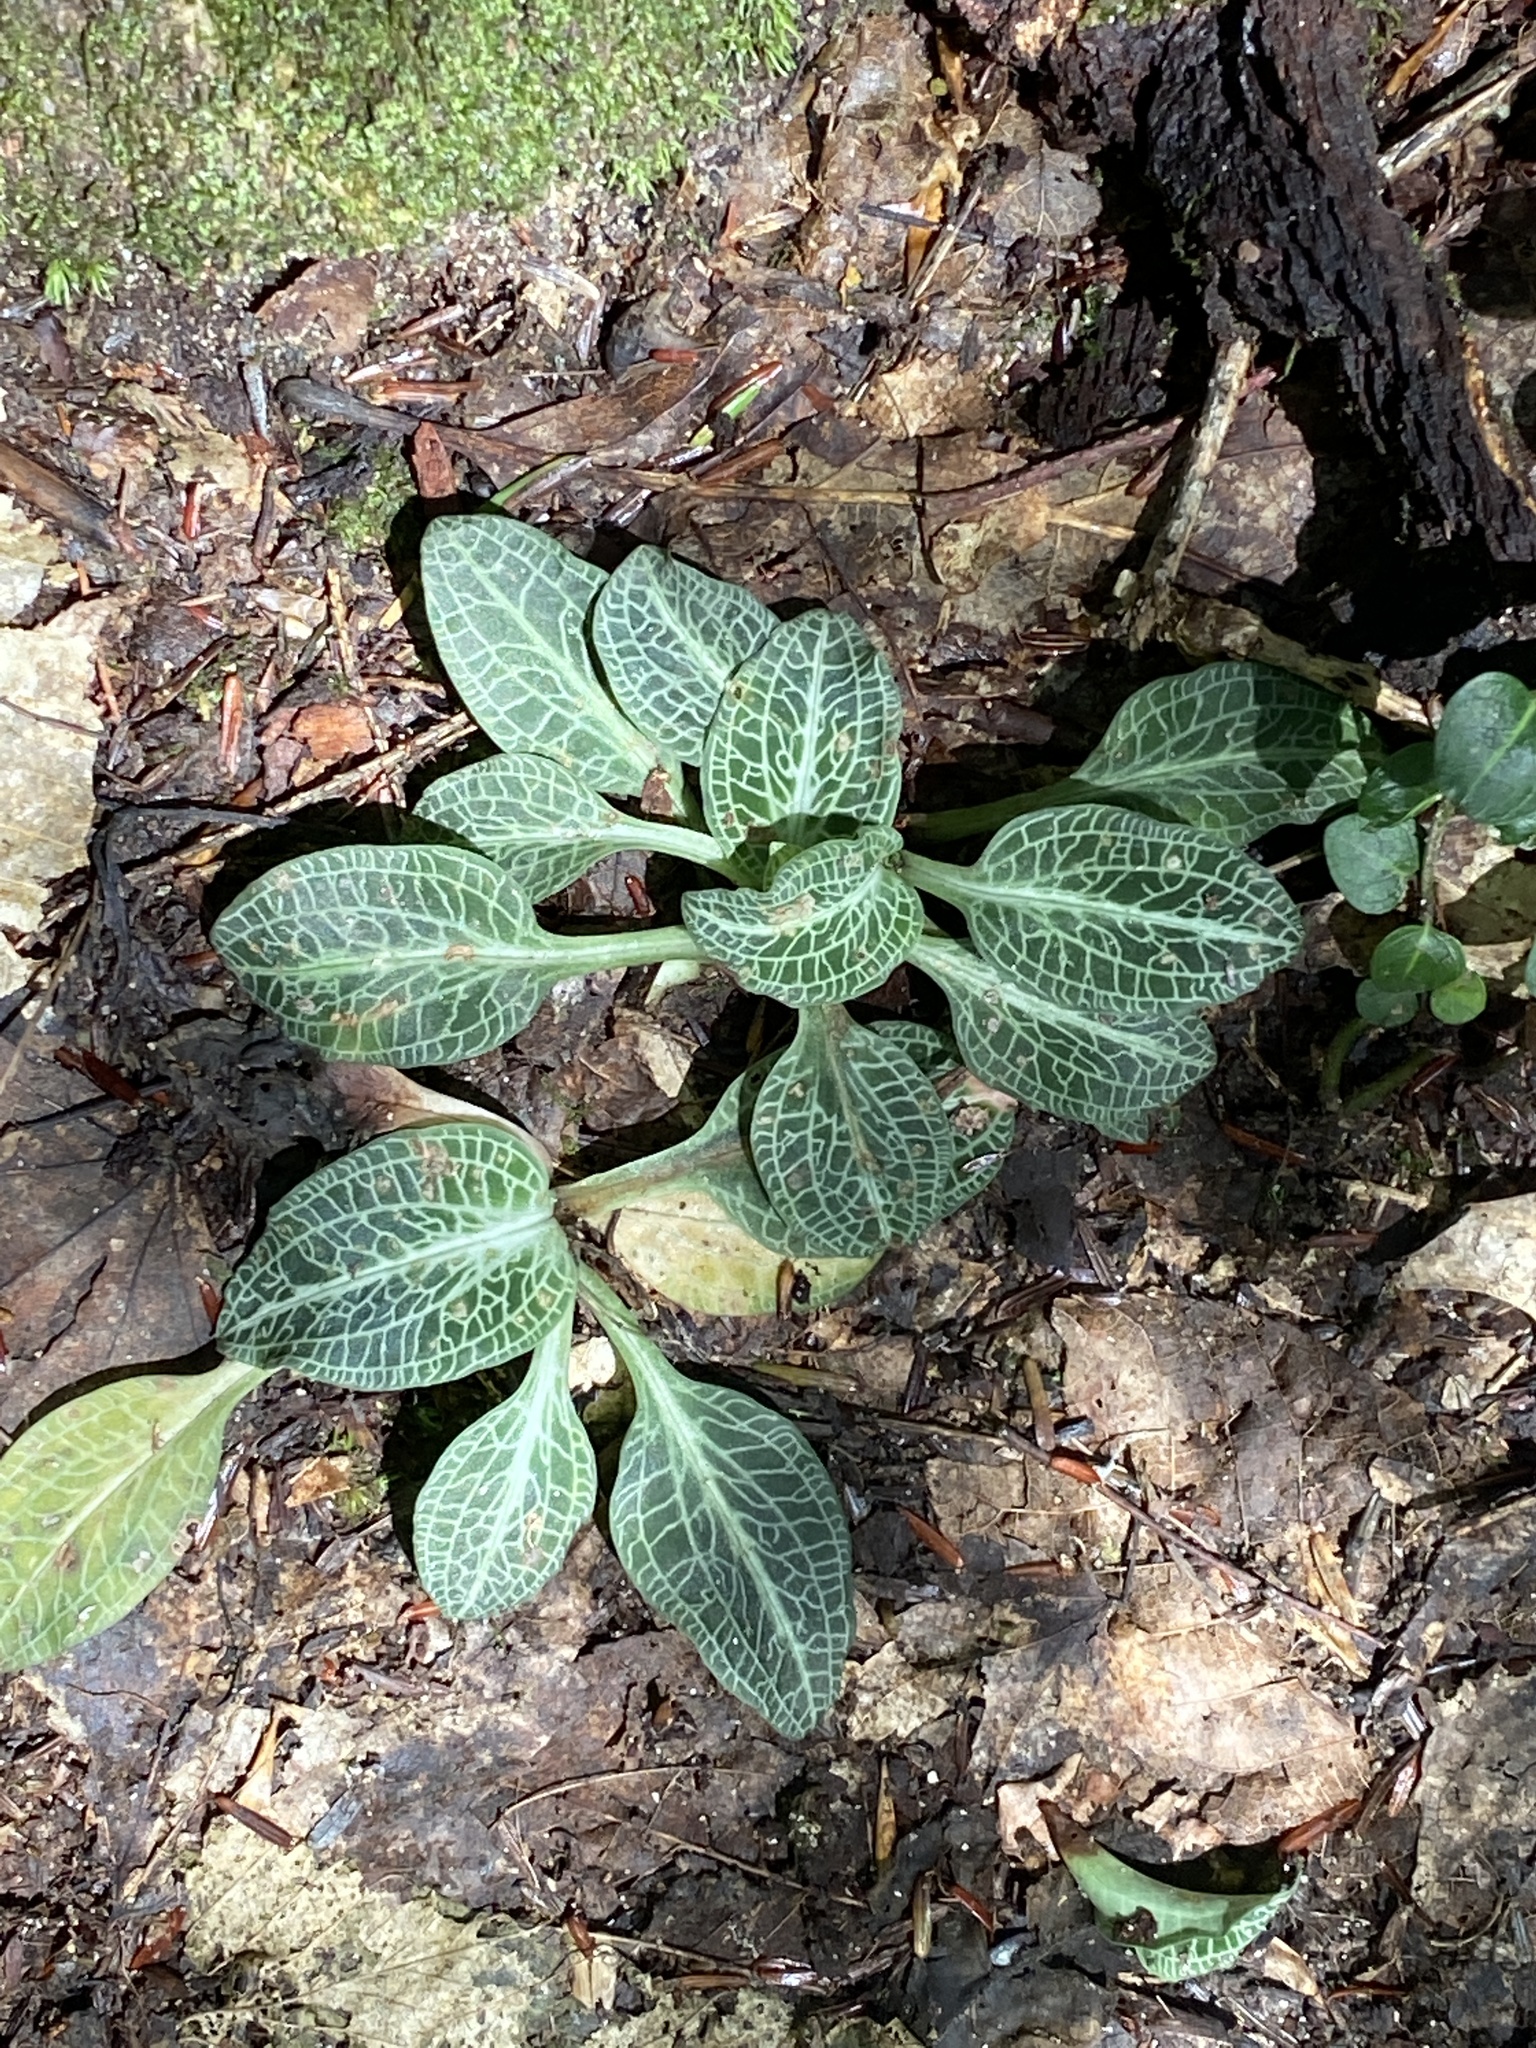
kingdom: Plantae
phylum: Tracheophyta
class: Liliopsida
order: Asparagales
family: Orchidaceae
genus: Goodyera
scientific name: Goodyera pubescens
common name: Downy rattlesnake-plantain
